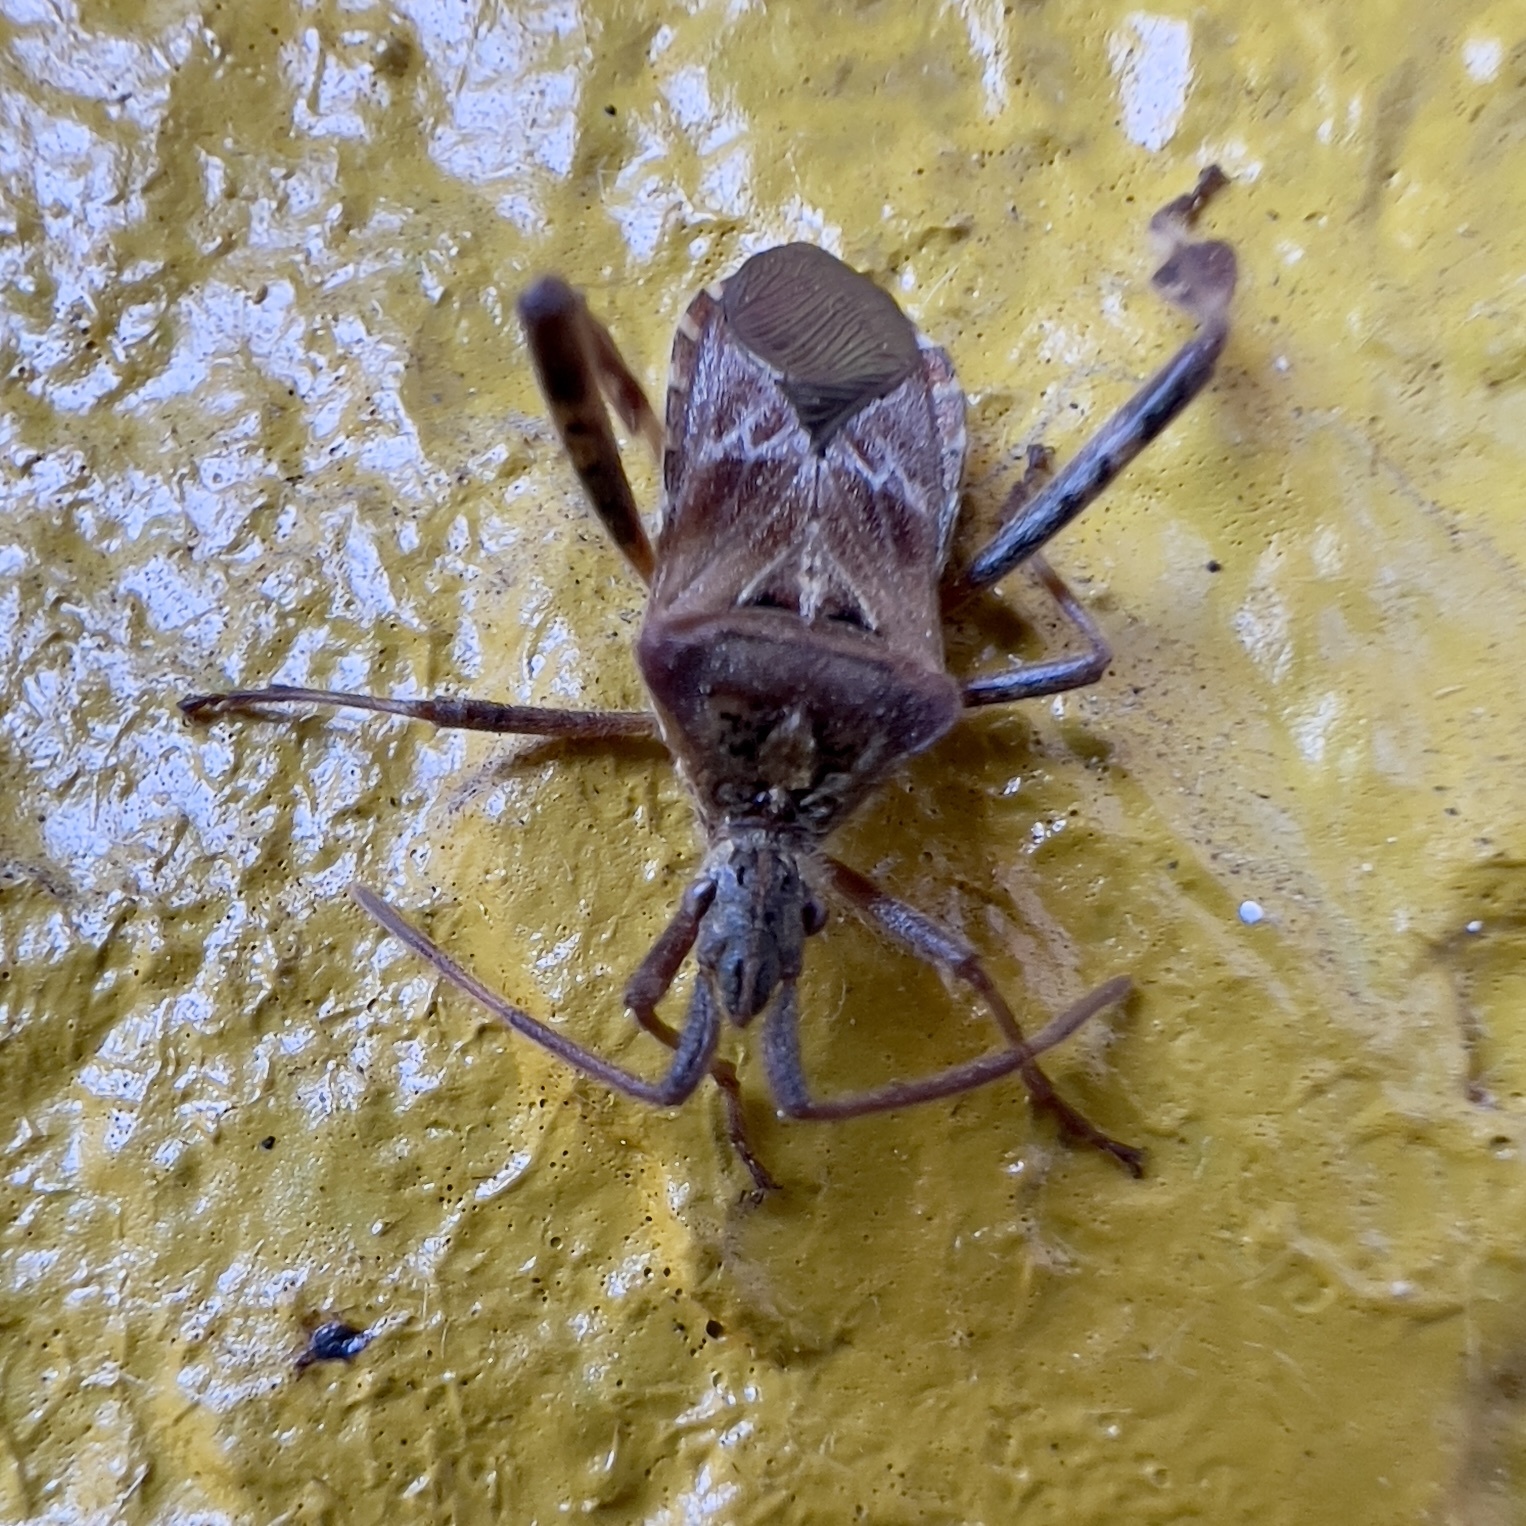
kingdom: Animalia
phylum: Arthropoda
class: Insecta
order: Hemiptera
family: Coreidae
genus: Leptoglossus
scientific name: Leptoglossus occidentalis
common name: Western conifer-seed bug
